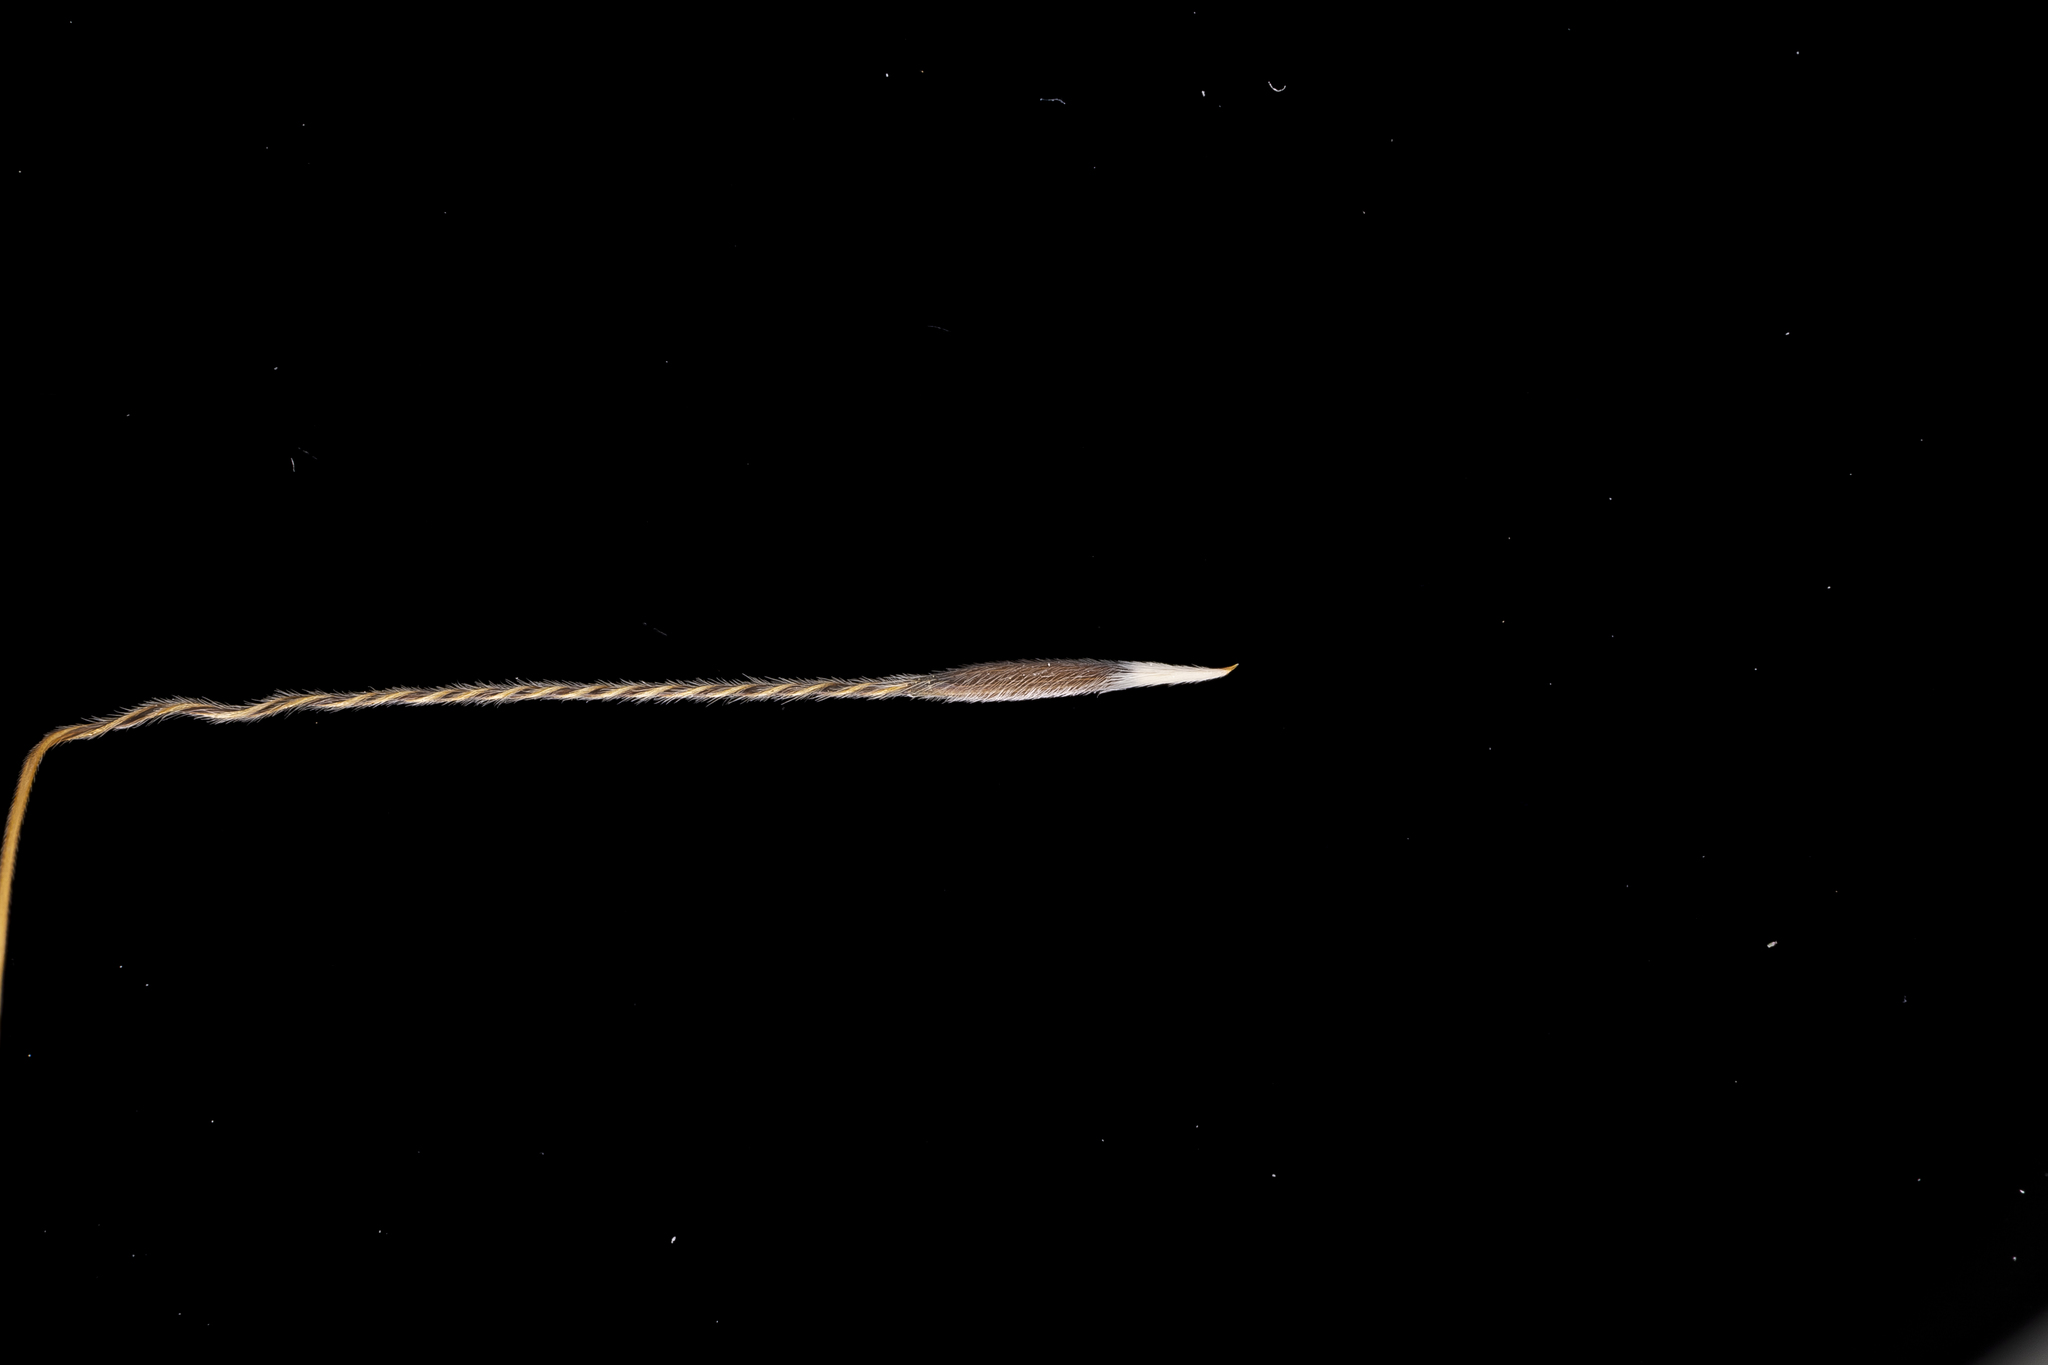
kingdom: Plantae
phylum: Tracheophyta
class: Liliopsida
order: Poales
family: Poaceae
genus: Austrostipa
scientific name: Austrostipa nitida
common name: Balcarra grass
